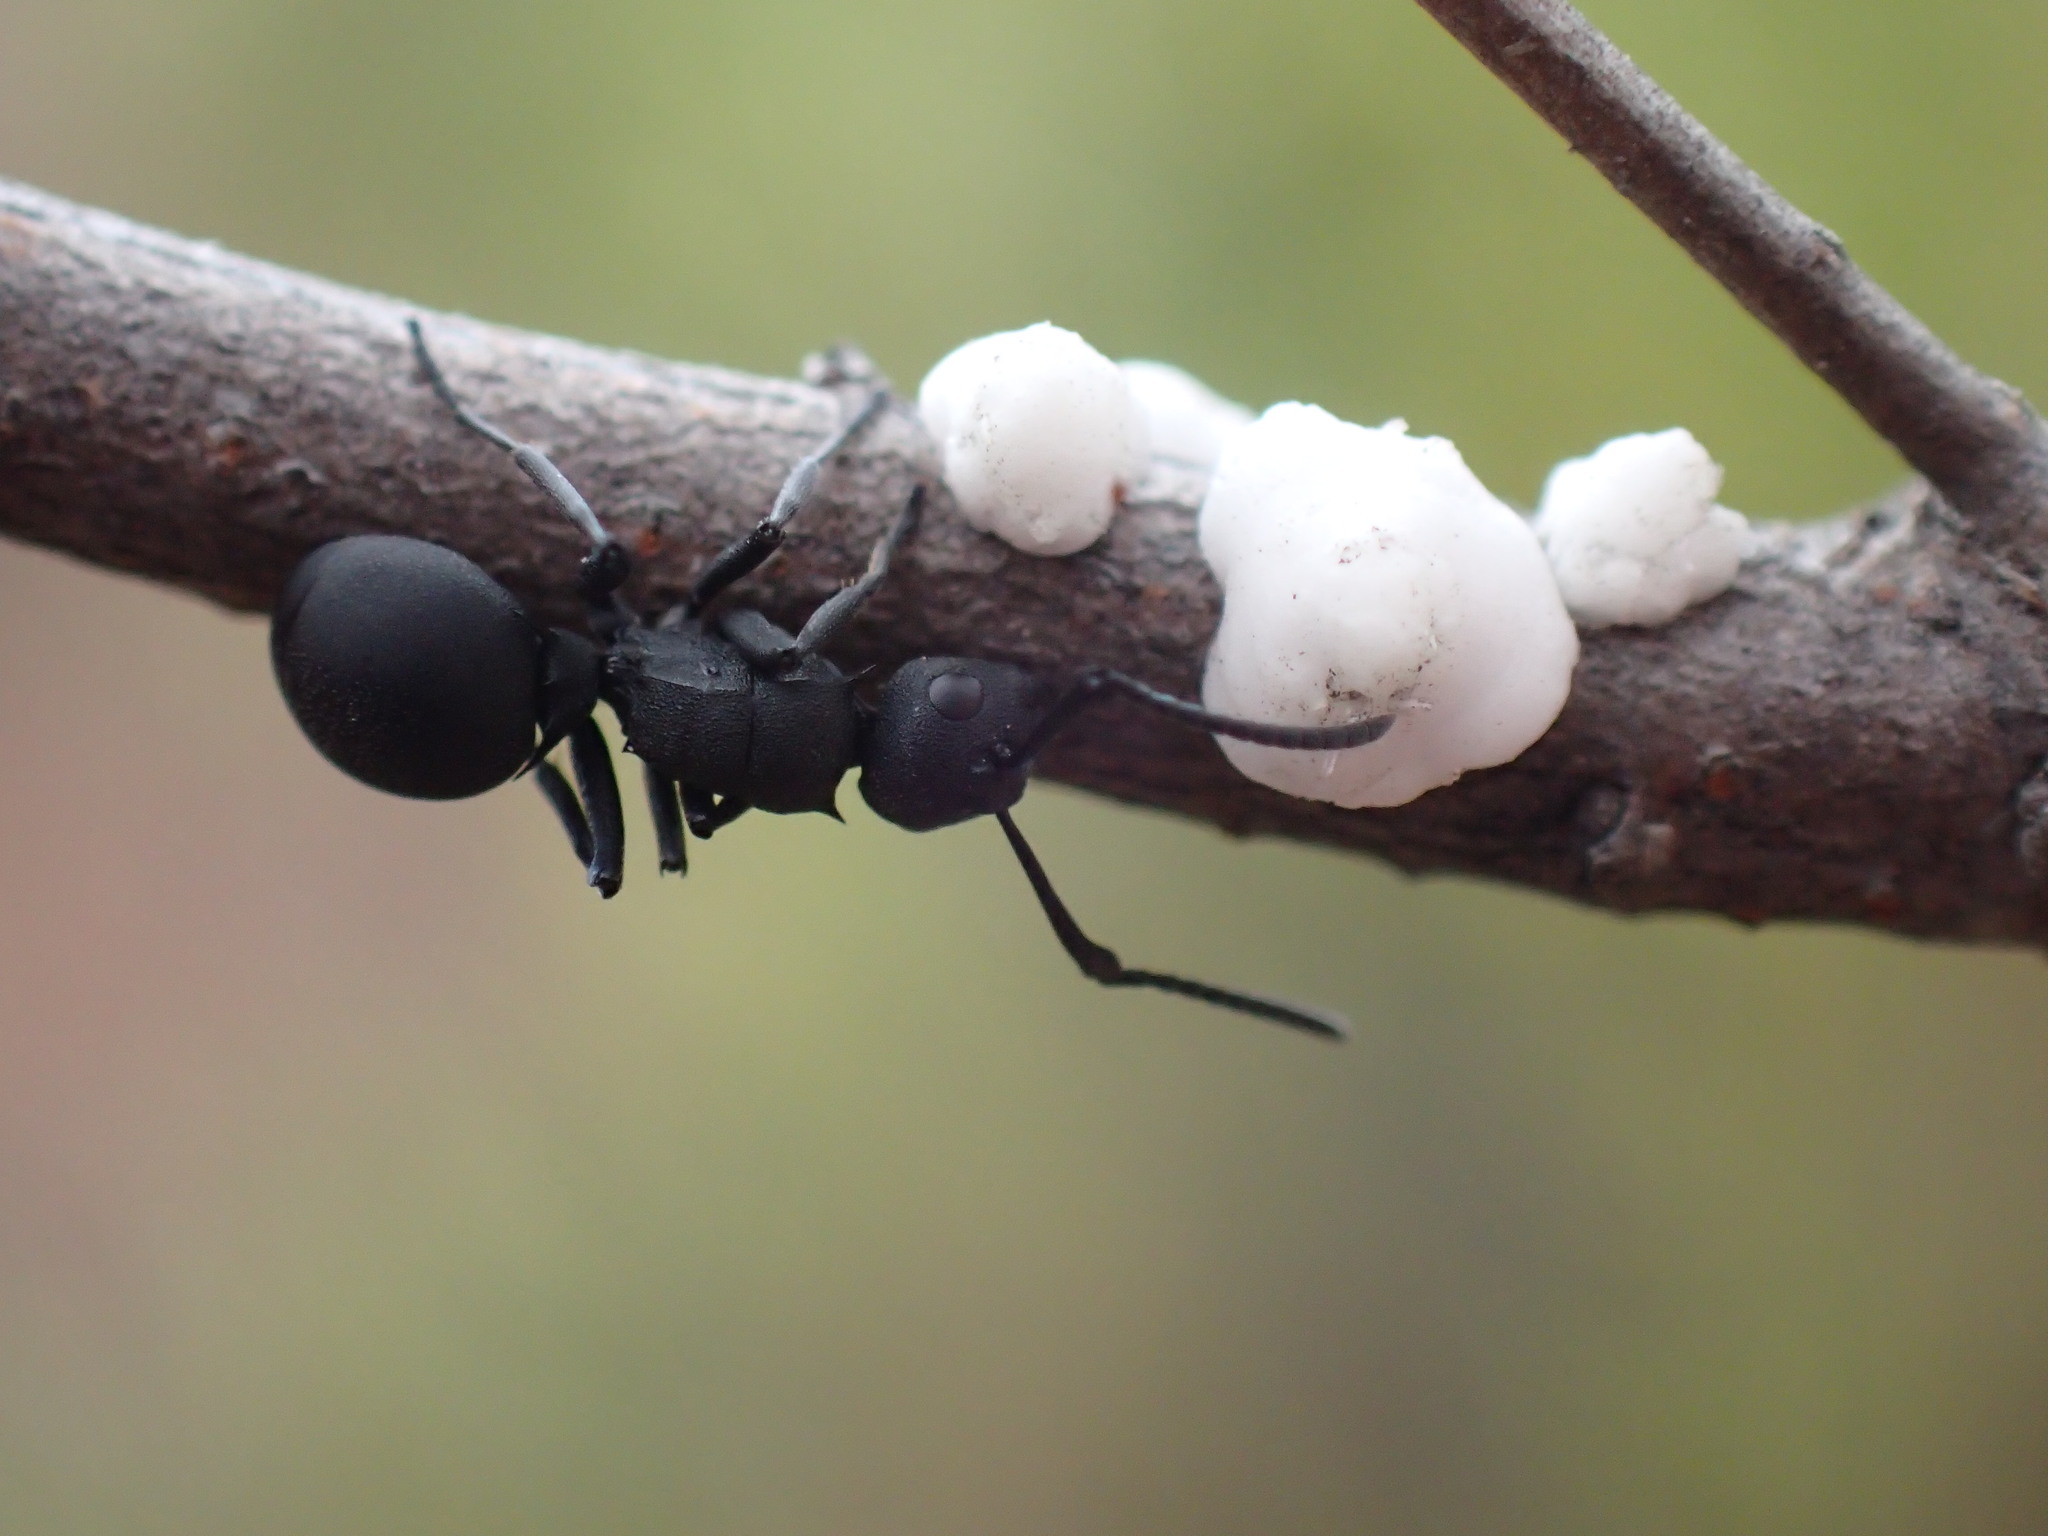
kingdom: Animalia
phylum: Arthropoda
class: Insecta
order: Hymenoptera
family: Formicidae
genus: Polyrhachis
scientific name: Polyrhachis viscosa
